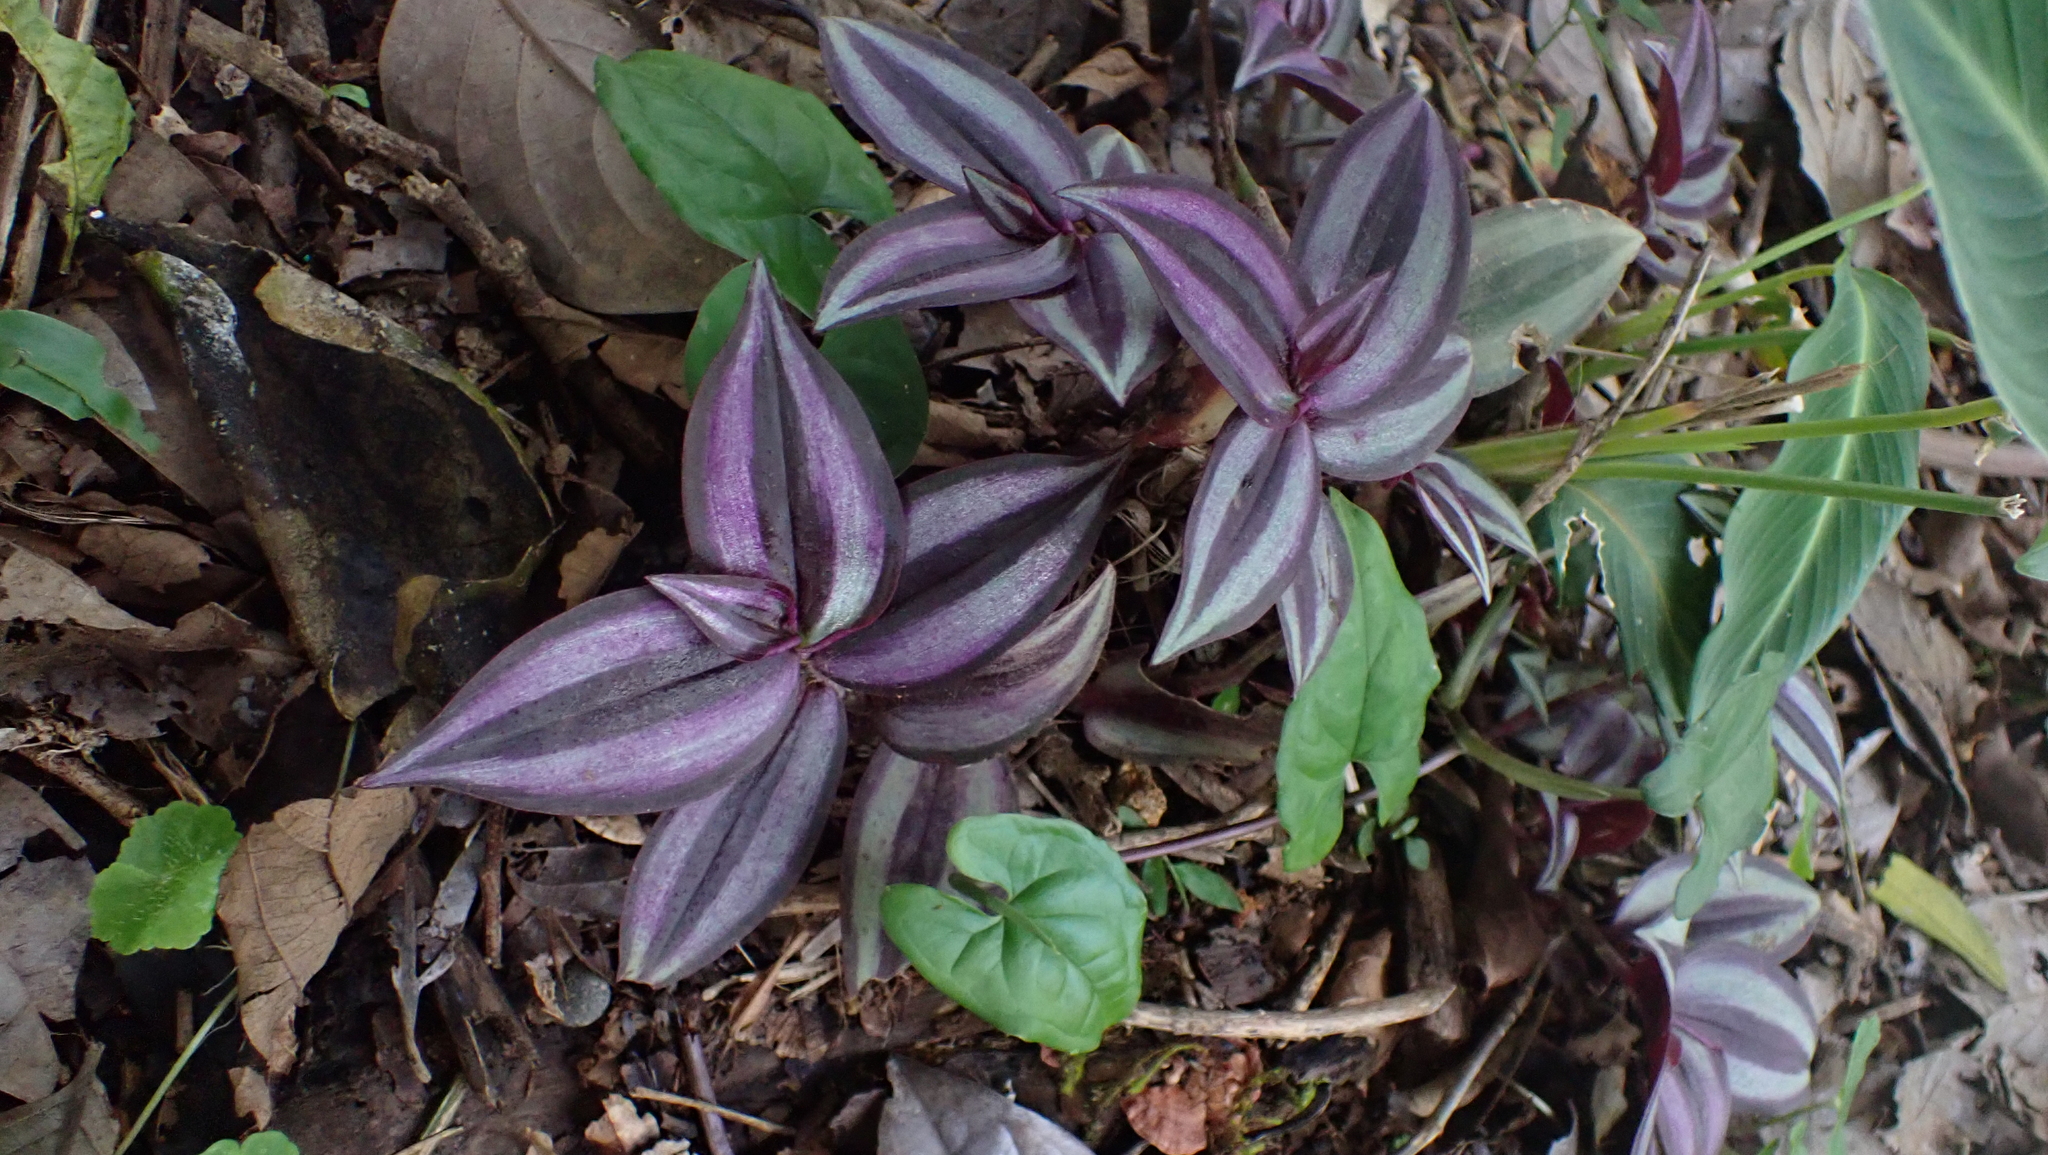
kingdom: Plantae
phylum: Tracheophyta
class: Liliopsida
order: Commelinales
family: Commelinaceae
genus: Tradescantia
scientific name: Tradescantia zebrina
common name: Inchplant
